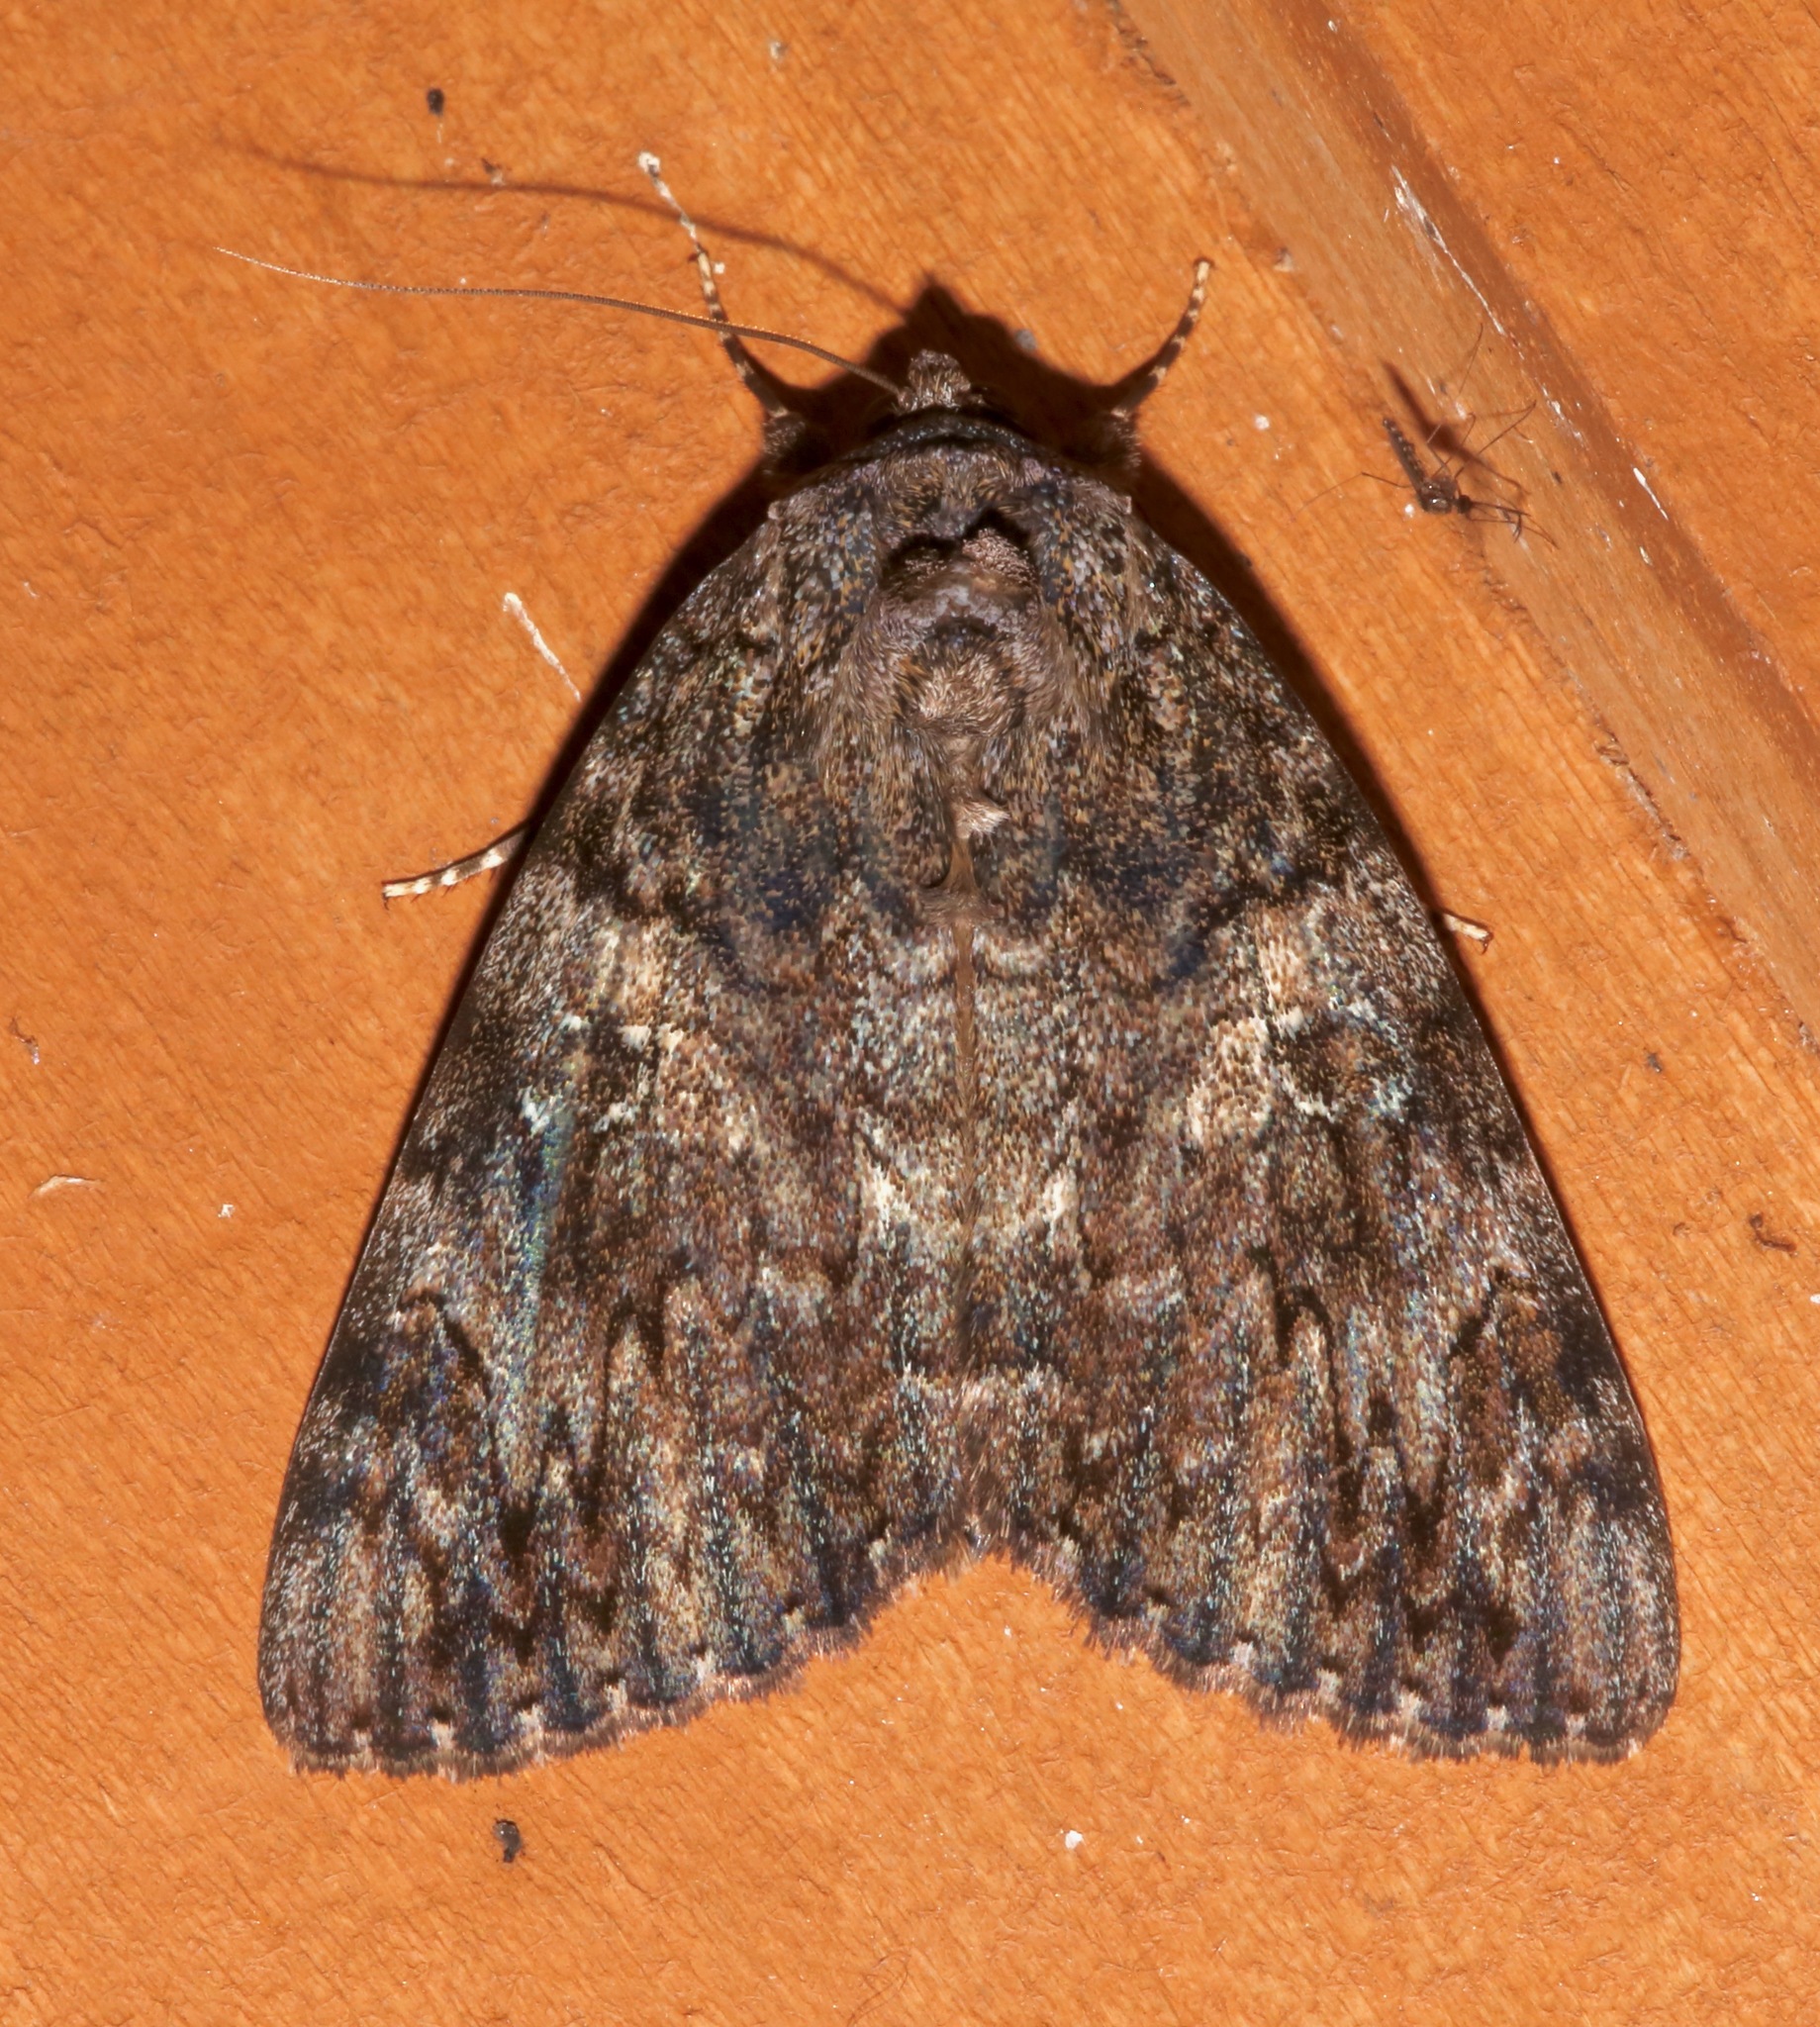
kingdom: Animalia
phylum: Arthropoda
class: Insecta
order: Lepidoptera
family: Erebidae
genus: Catocala
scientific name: Catocala umbrosa
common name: Umber underwing
